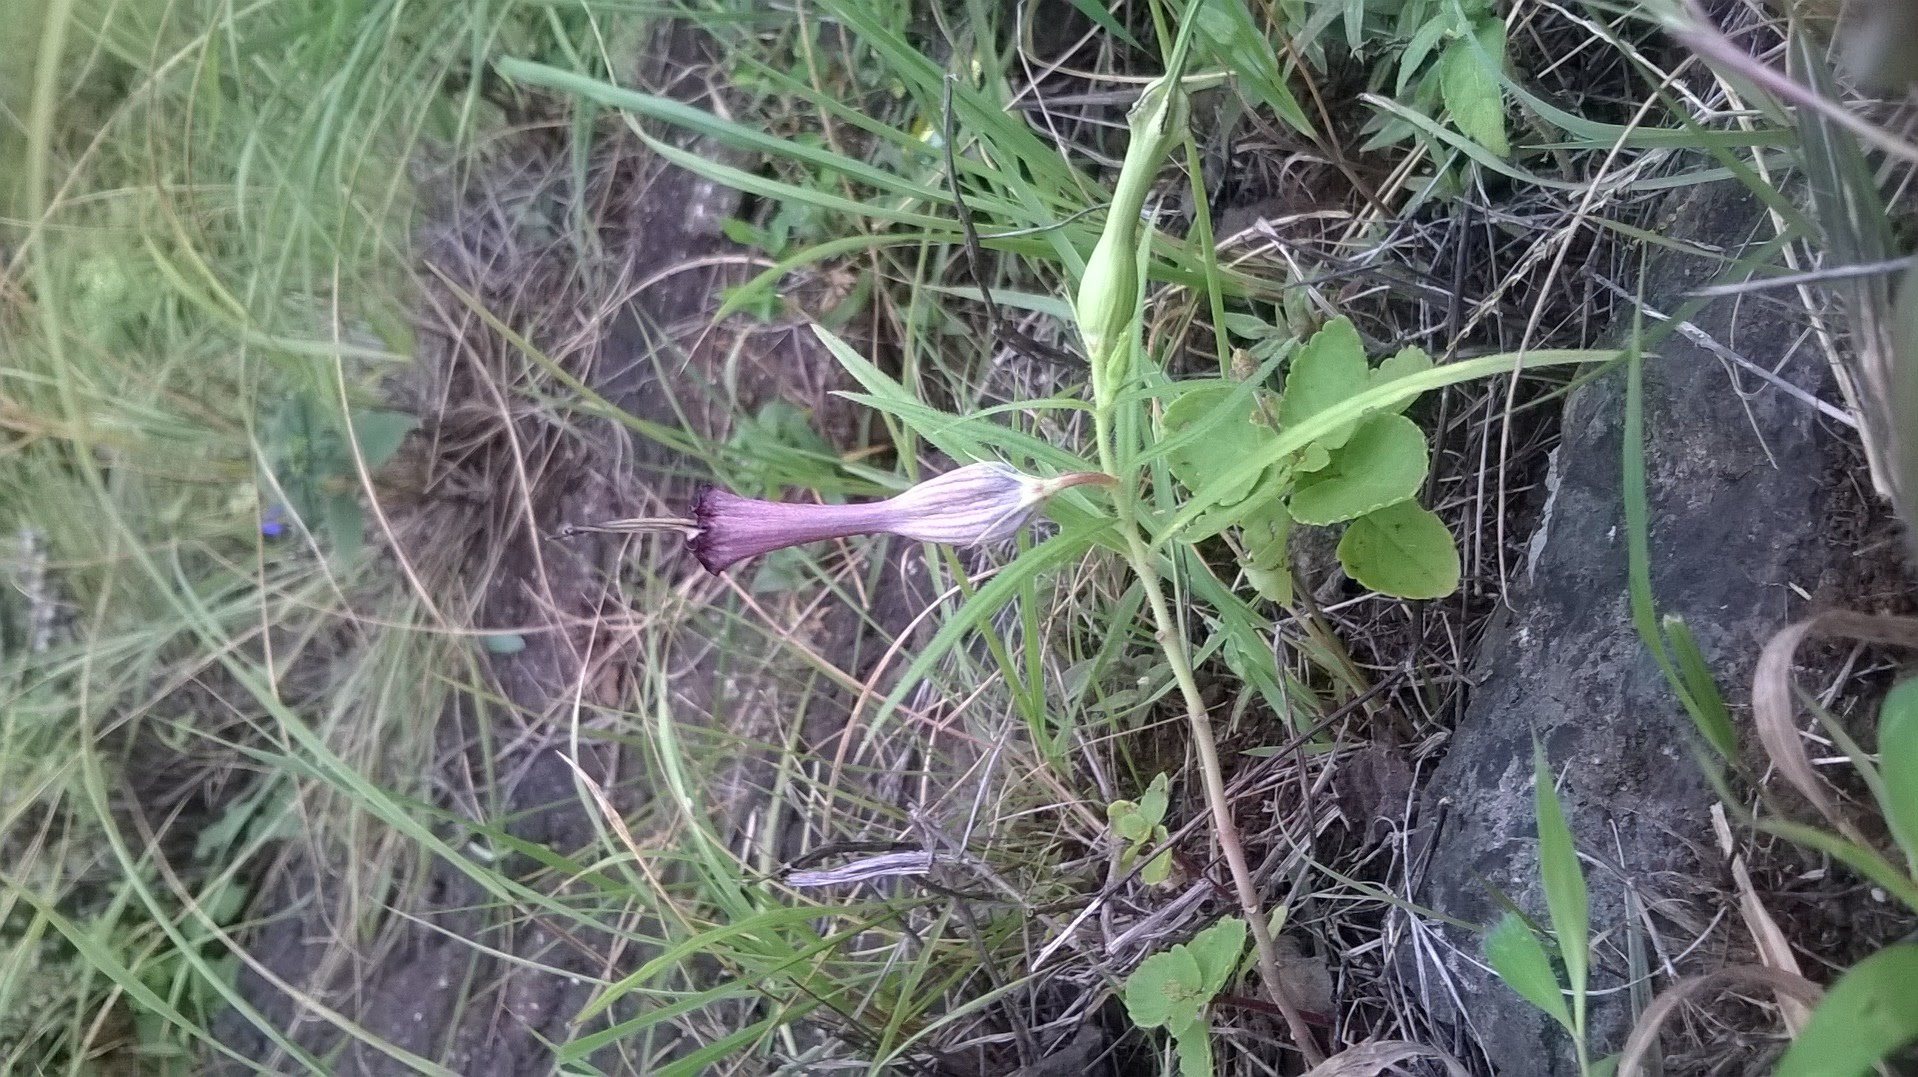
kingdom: Plantae
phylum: Tracheophyta
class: Magnoliopsida
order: Gentianales
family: Apocynaceae
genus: Ceropegia
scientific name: Ceropegia mahabalei
